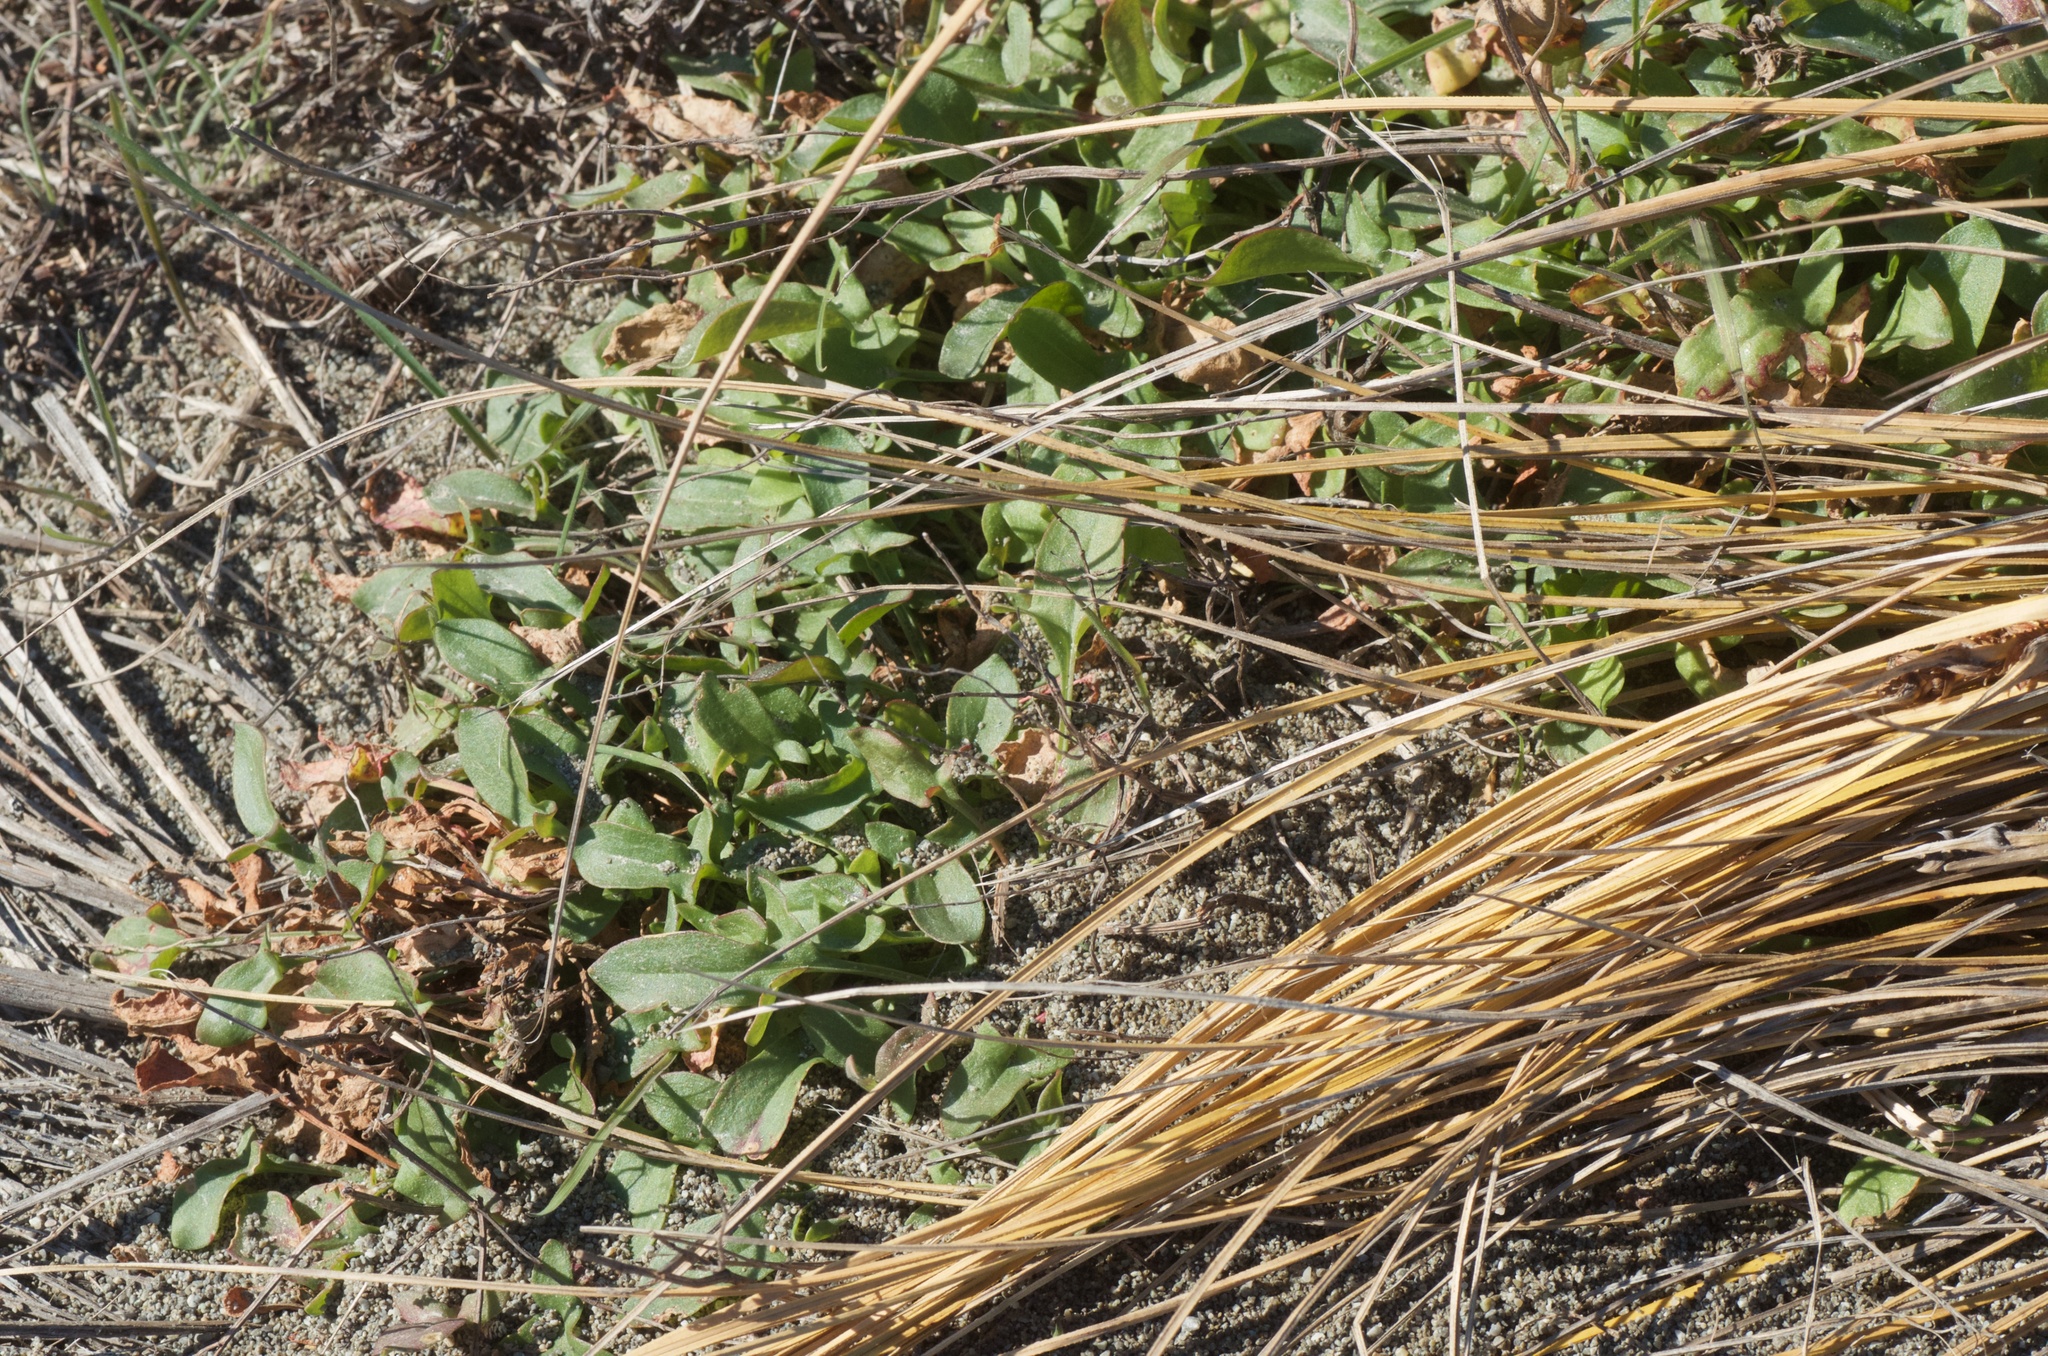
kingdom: Plantae
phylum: Tracheophyta
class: Magnoliopsida
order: Caryophyllales
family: Polygonaceae
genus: Rumex
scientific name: Rumex acetosella
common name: Common sheep sorrel
